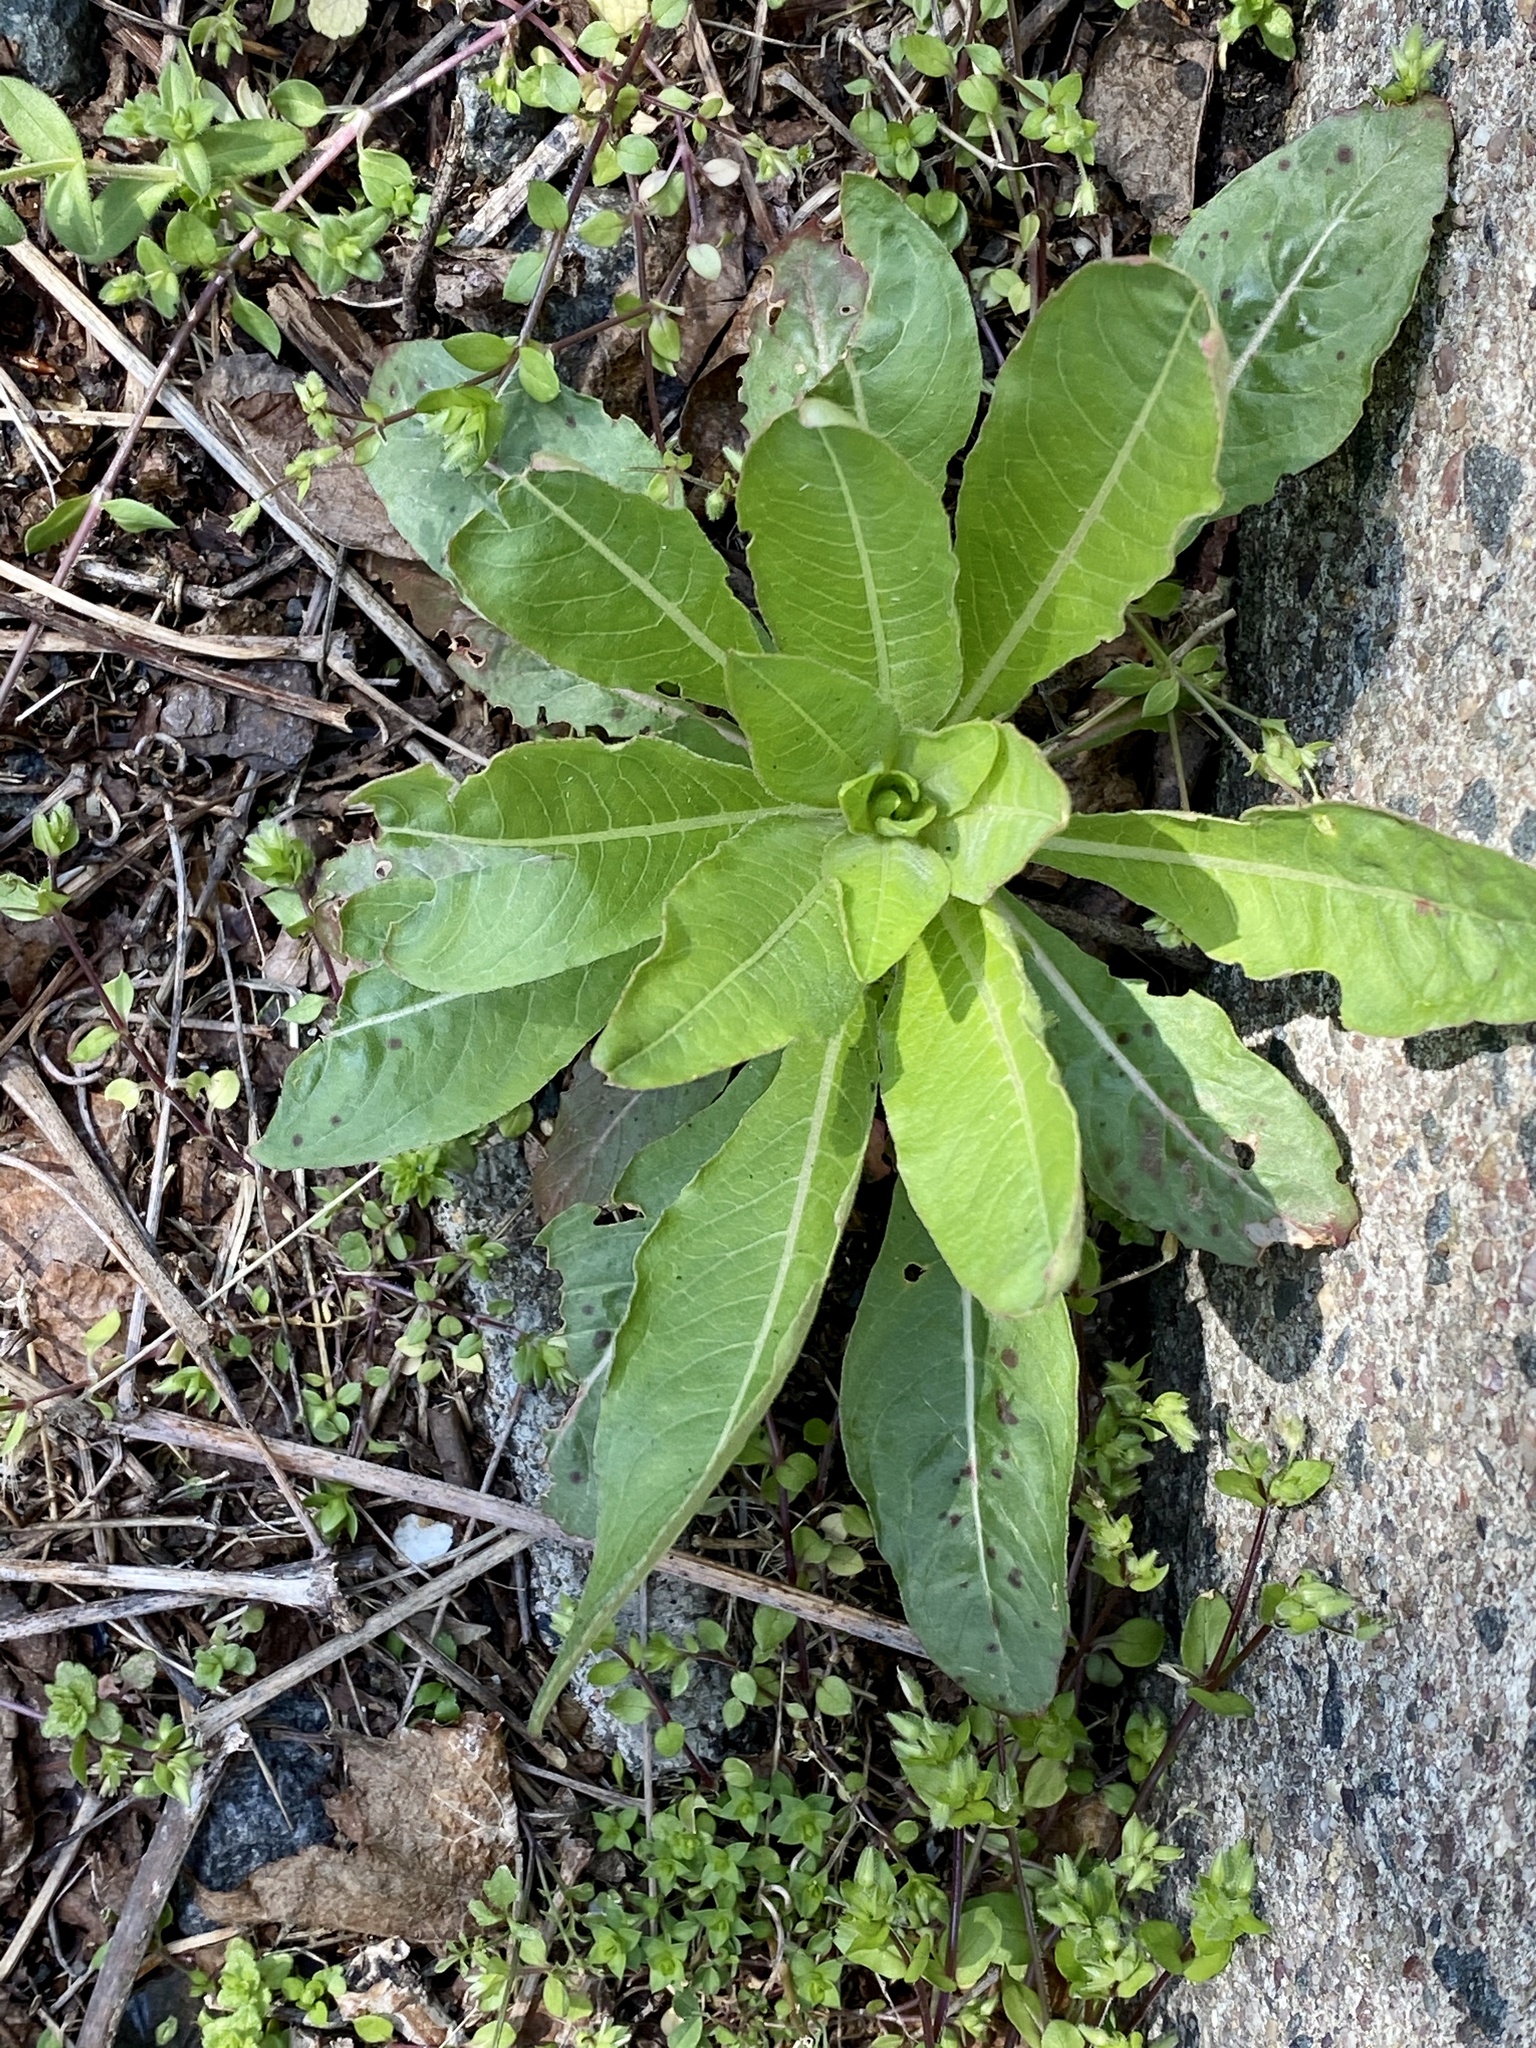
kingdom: Plantae
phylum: Tracheophyta
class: Magnoliopsida
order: Myrtales
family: Onagraceae
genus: Oenothera
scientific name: Oenothera biennis
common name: Common evening-primrose
